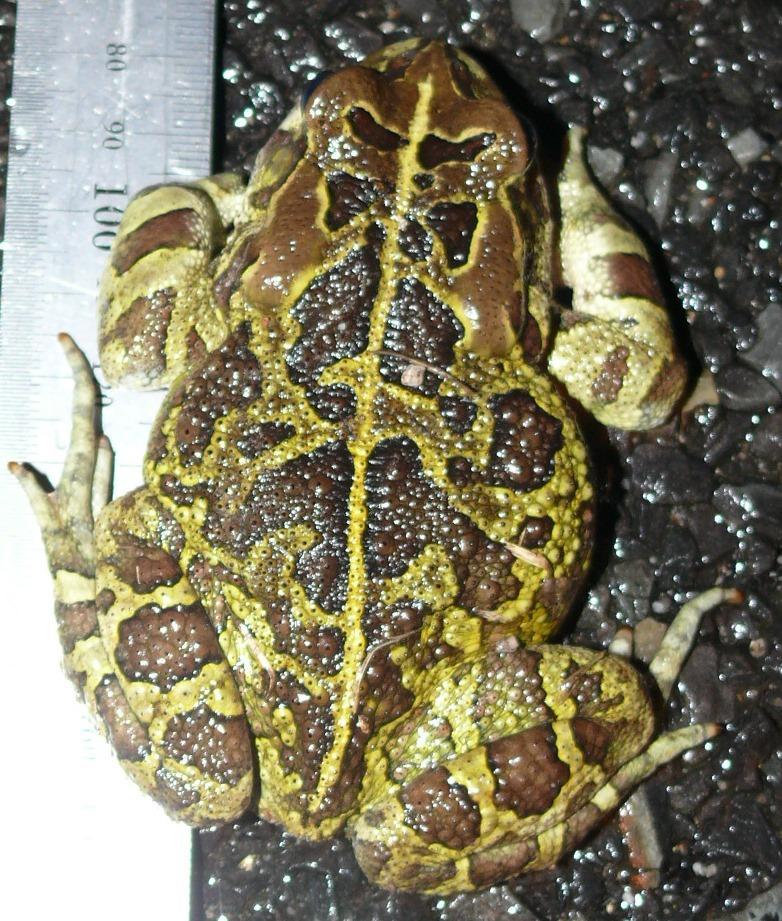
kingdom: Animalia
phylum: Chordata
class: Amphibia
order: Anura
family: Bufonidae
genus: Sclerophrys
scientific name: Sclerophrys pantherina
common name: Panther toad
